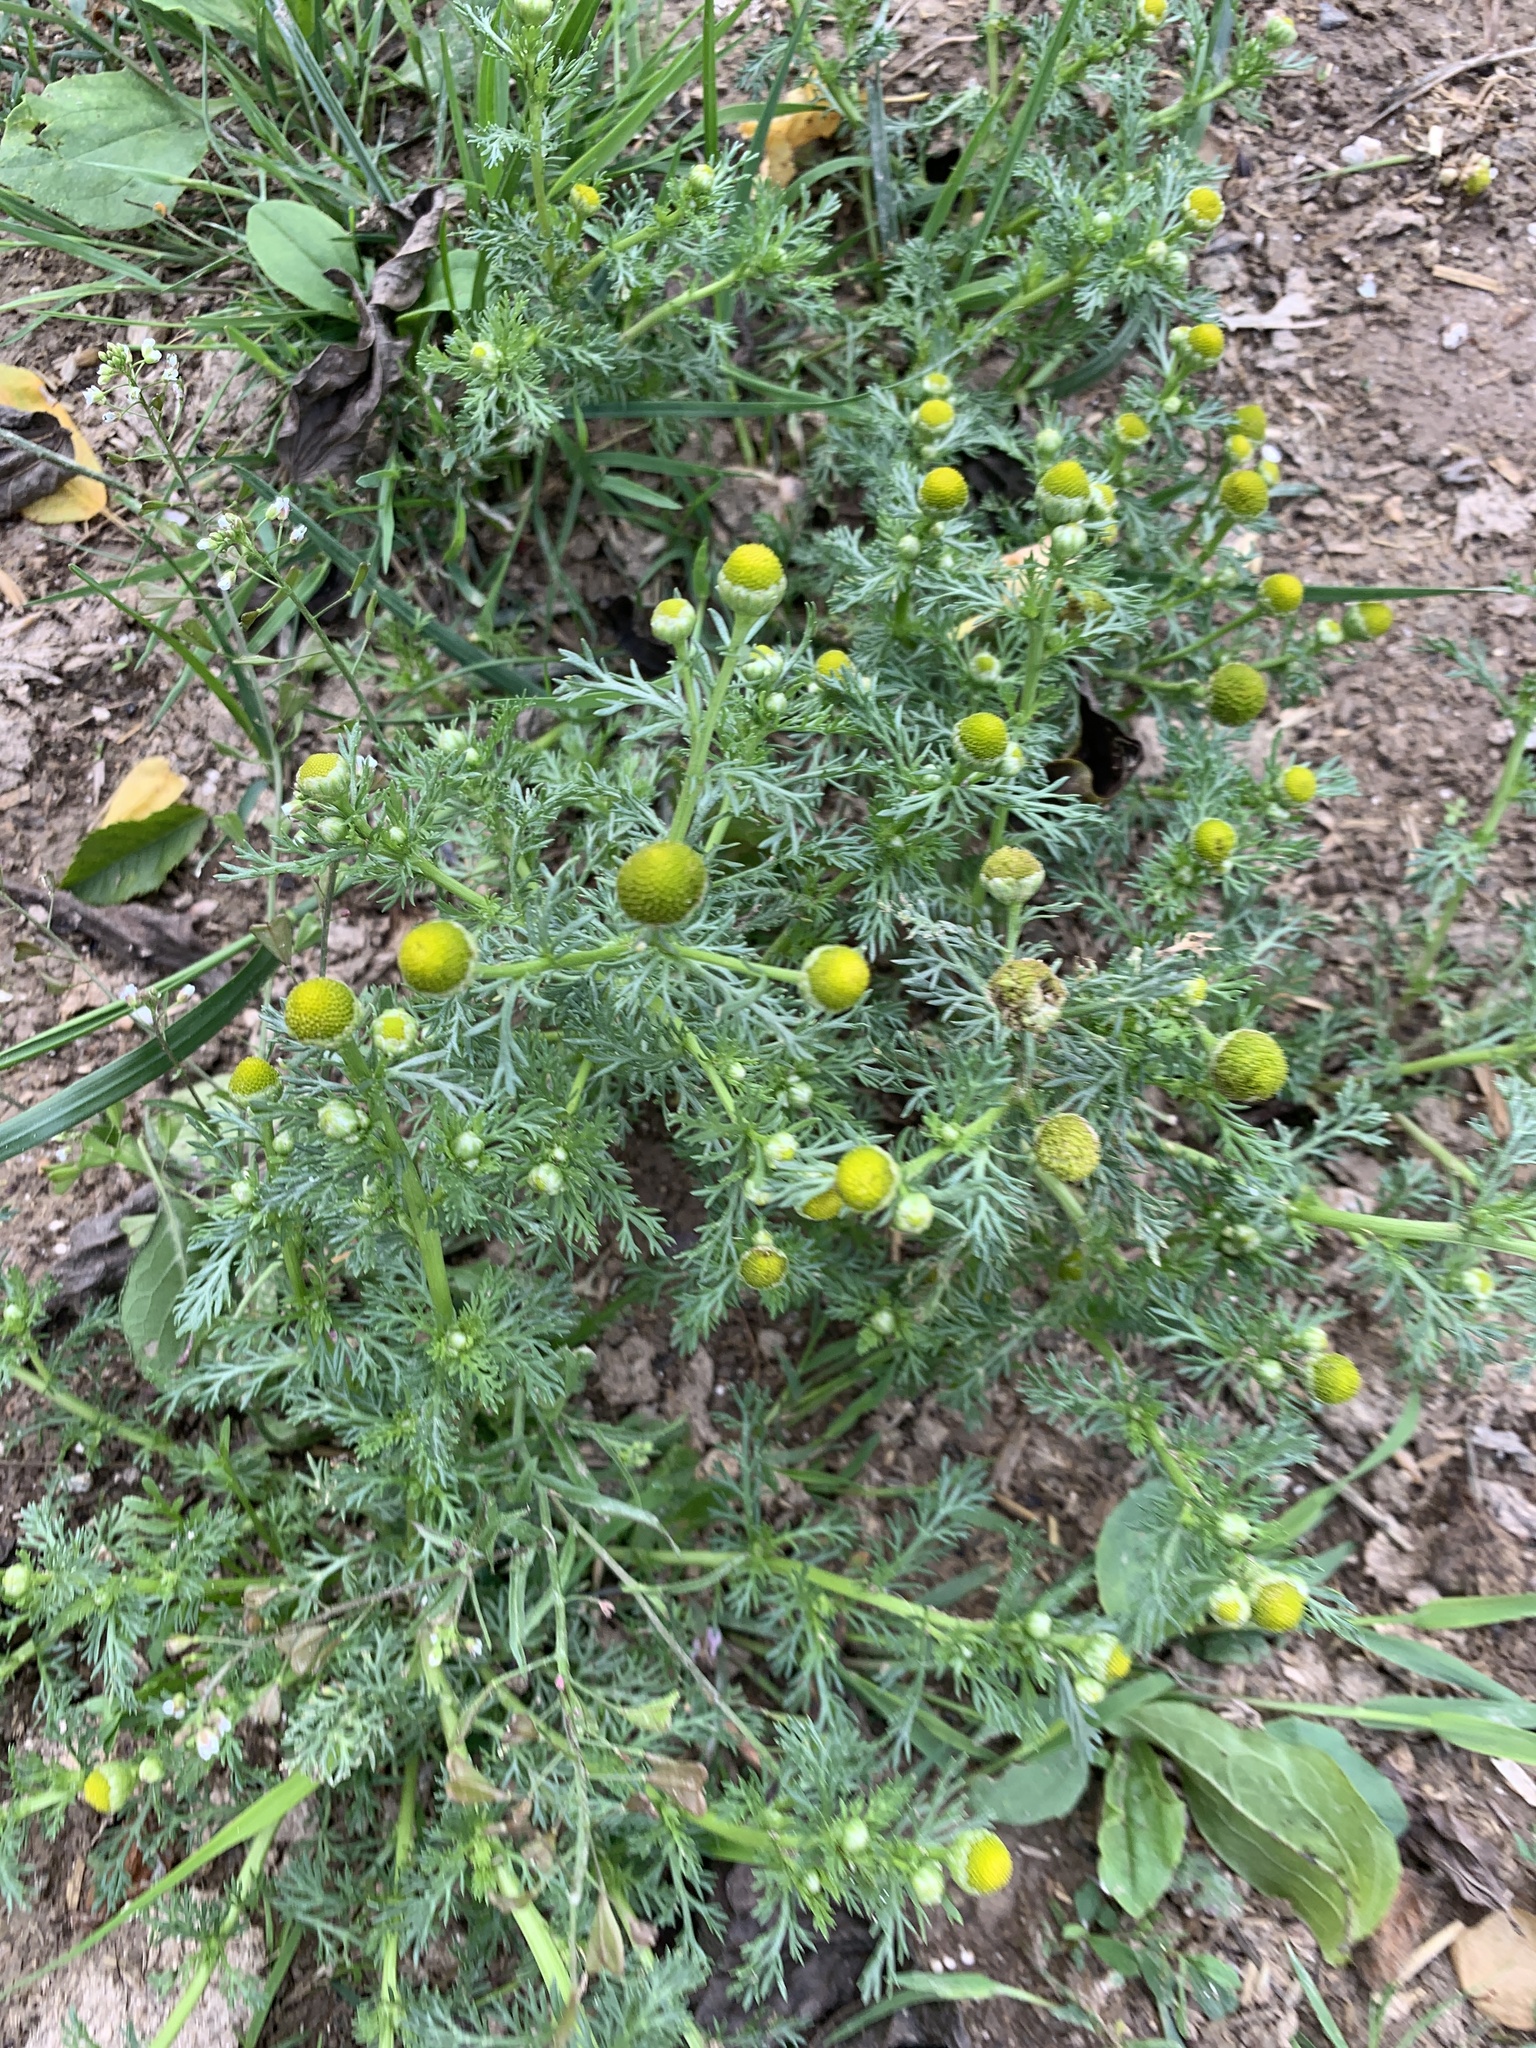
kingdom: Plantae
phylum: Tracheophyta
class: Magnoliopsida
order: Asterales
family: Asteraceae
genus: Matricaria
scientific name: Matricaria discoidea
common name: Disc mayweed
